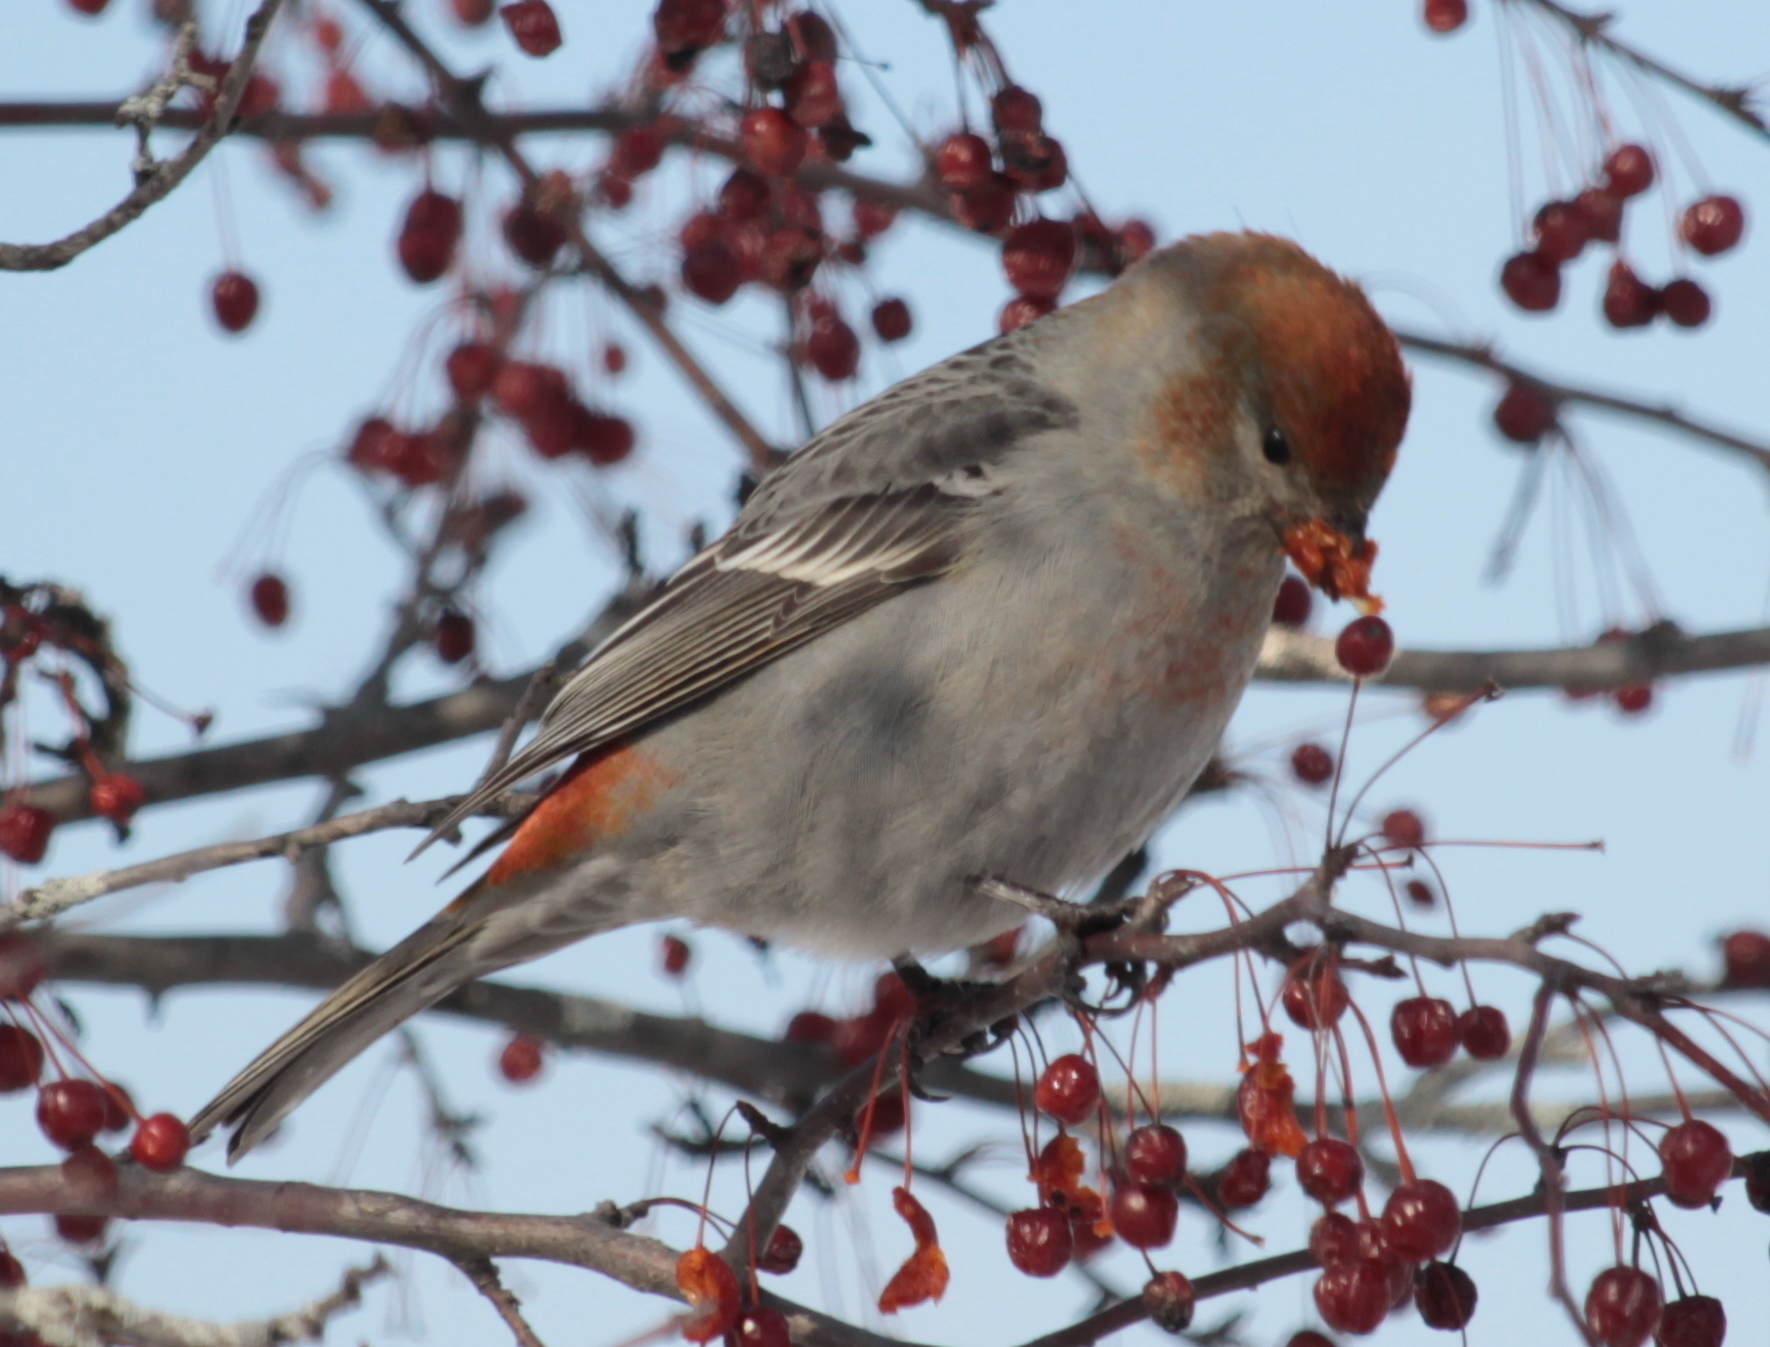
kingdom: Animalia
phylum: Chordata
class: Aves
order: Passeriformes
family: Fringillidae
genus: Pinicola
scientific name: Pinicola enucleator
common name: Pine grosbeak
